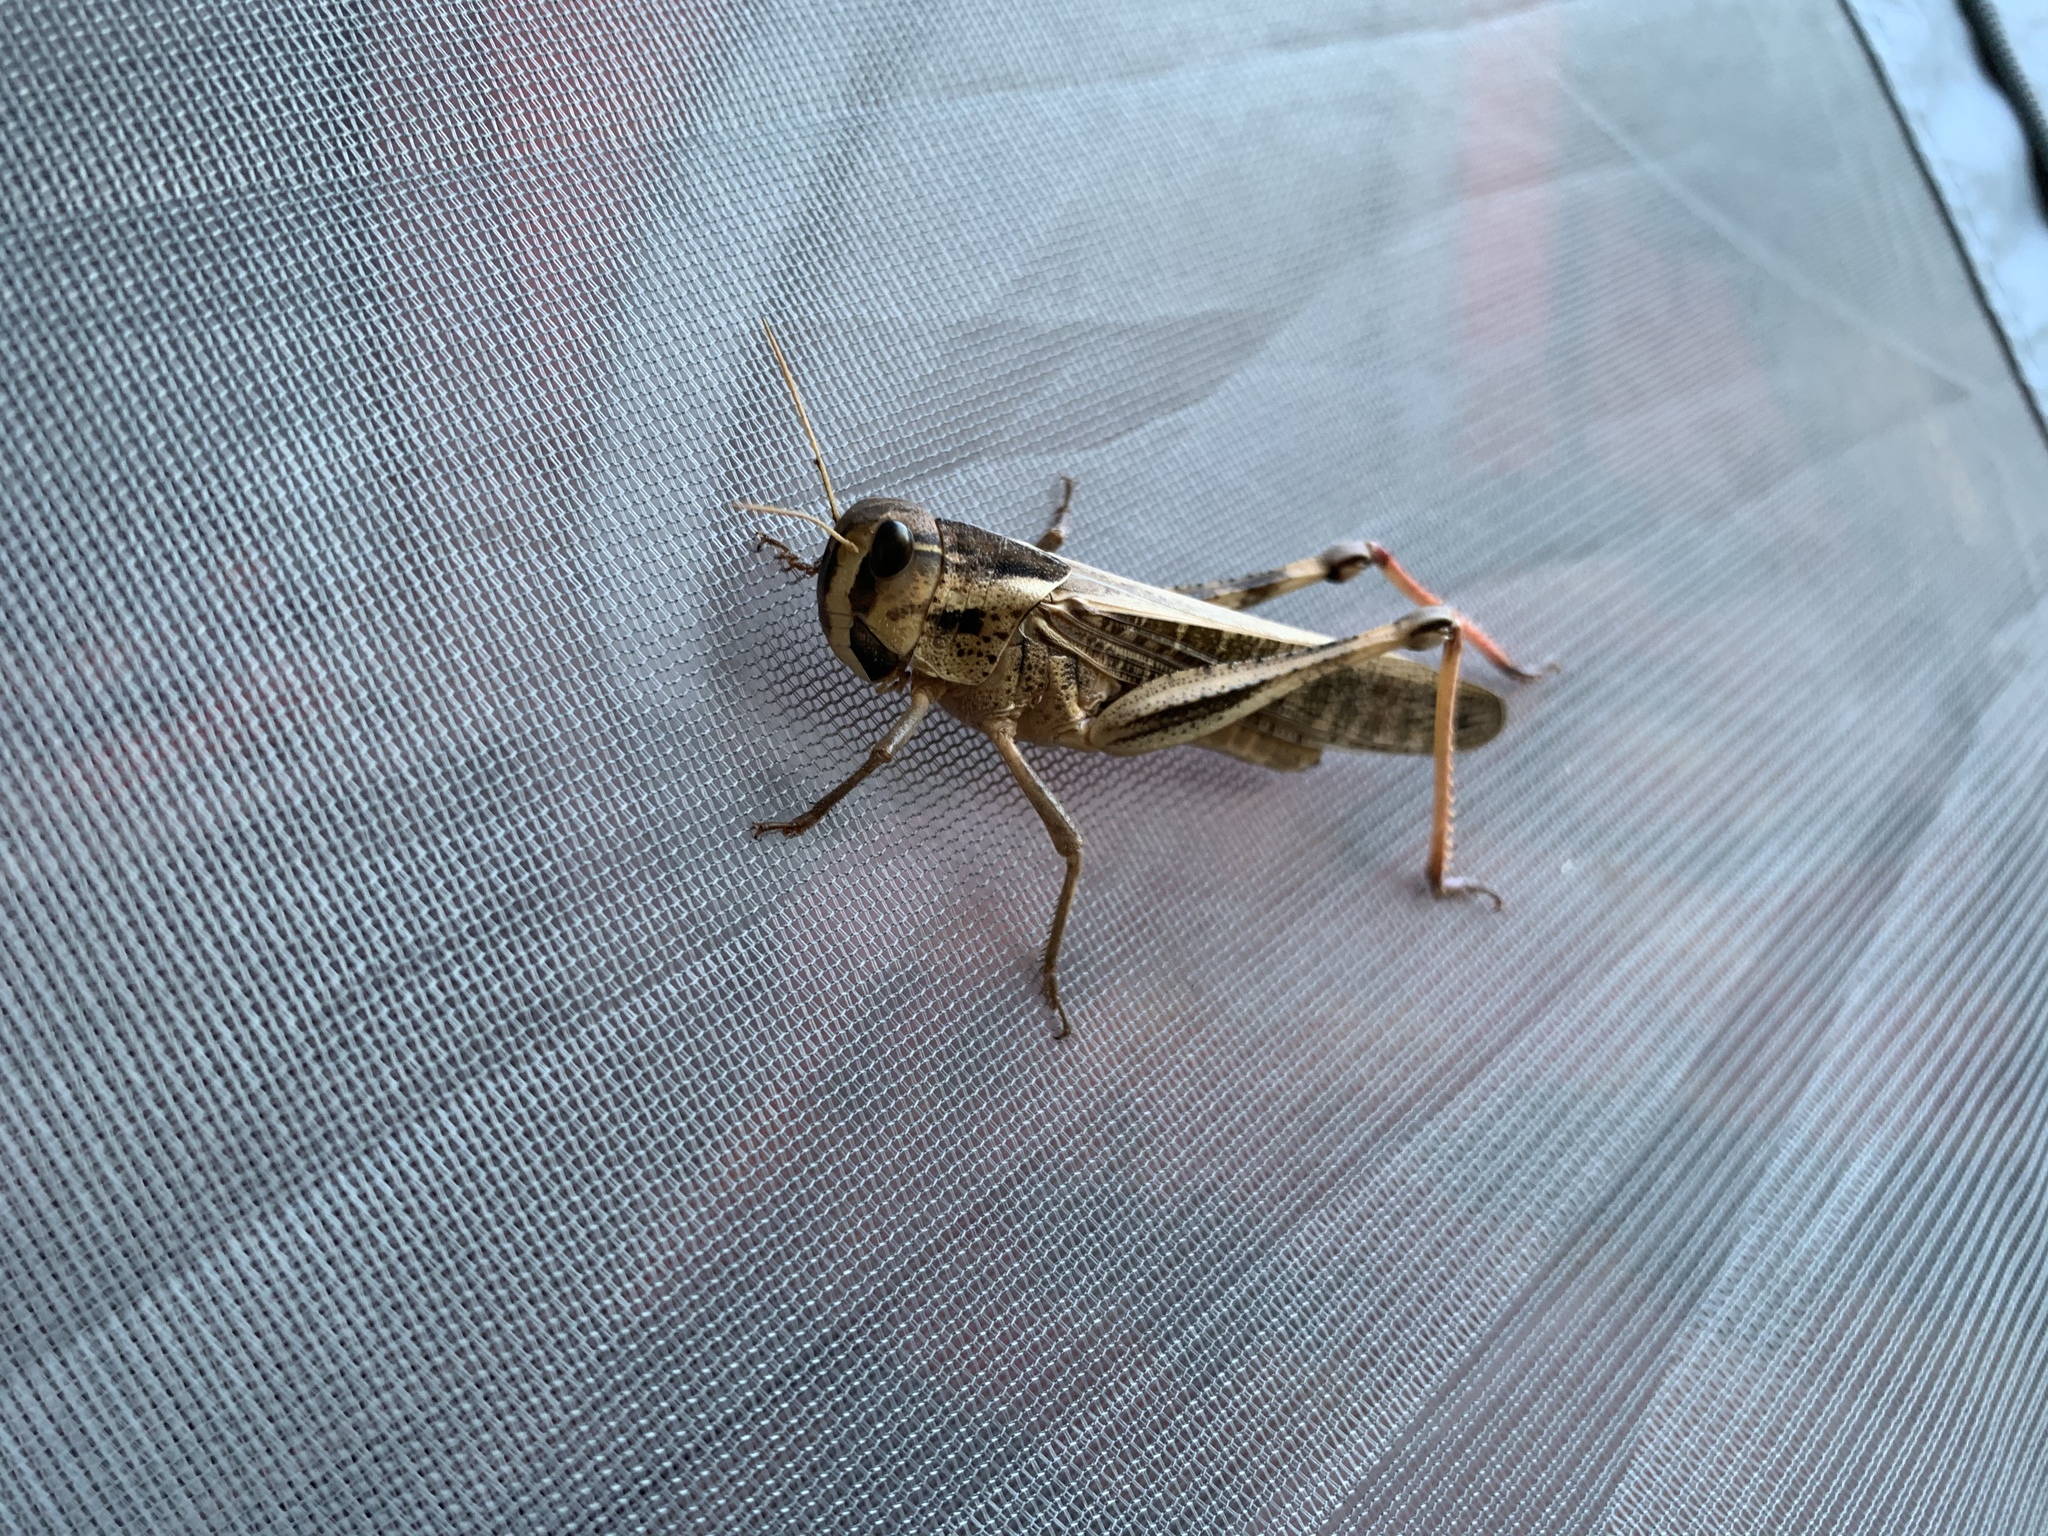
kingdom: Animalia
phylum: Arthropoda
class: Insecta
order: Orthoptera
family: Acrididae
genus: Locusta
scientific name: Locusta migratoria
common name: Migratory locust
